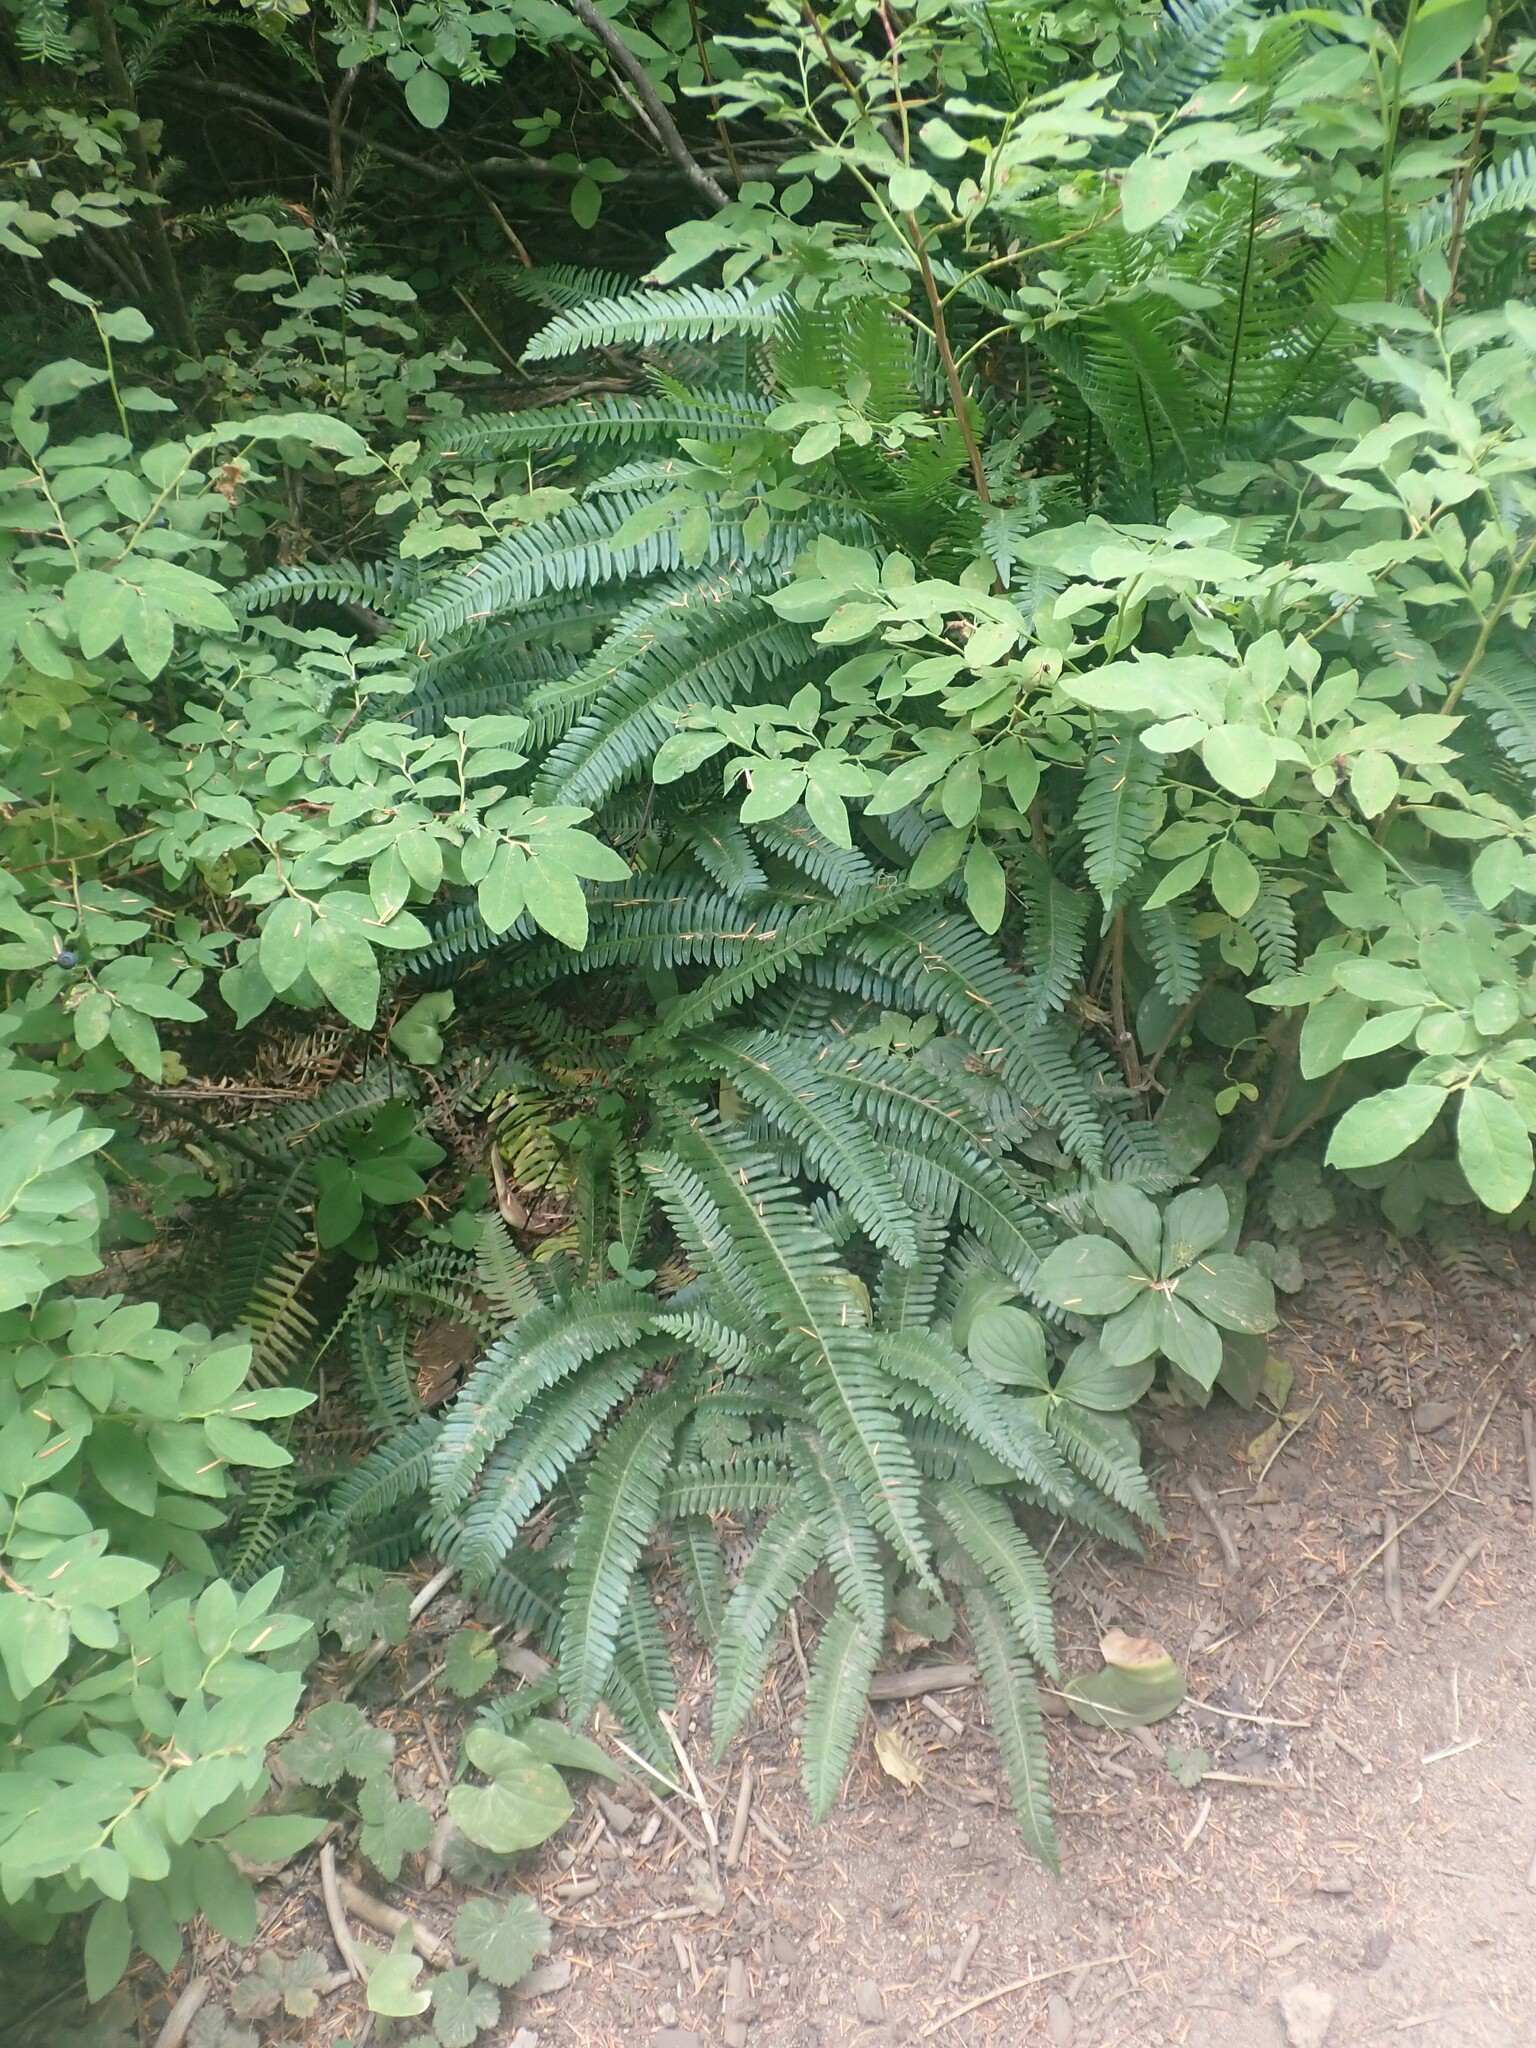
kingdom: Plantae
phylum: Tracheophyta
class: Polypodiopsida
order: Polypodiales
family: Blechnaceae
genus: Struthiopteris
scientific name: Struthiopteris spicant
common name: Deer fern
